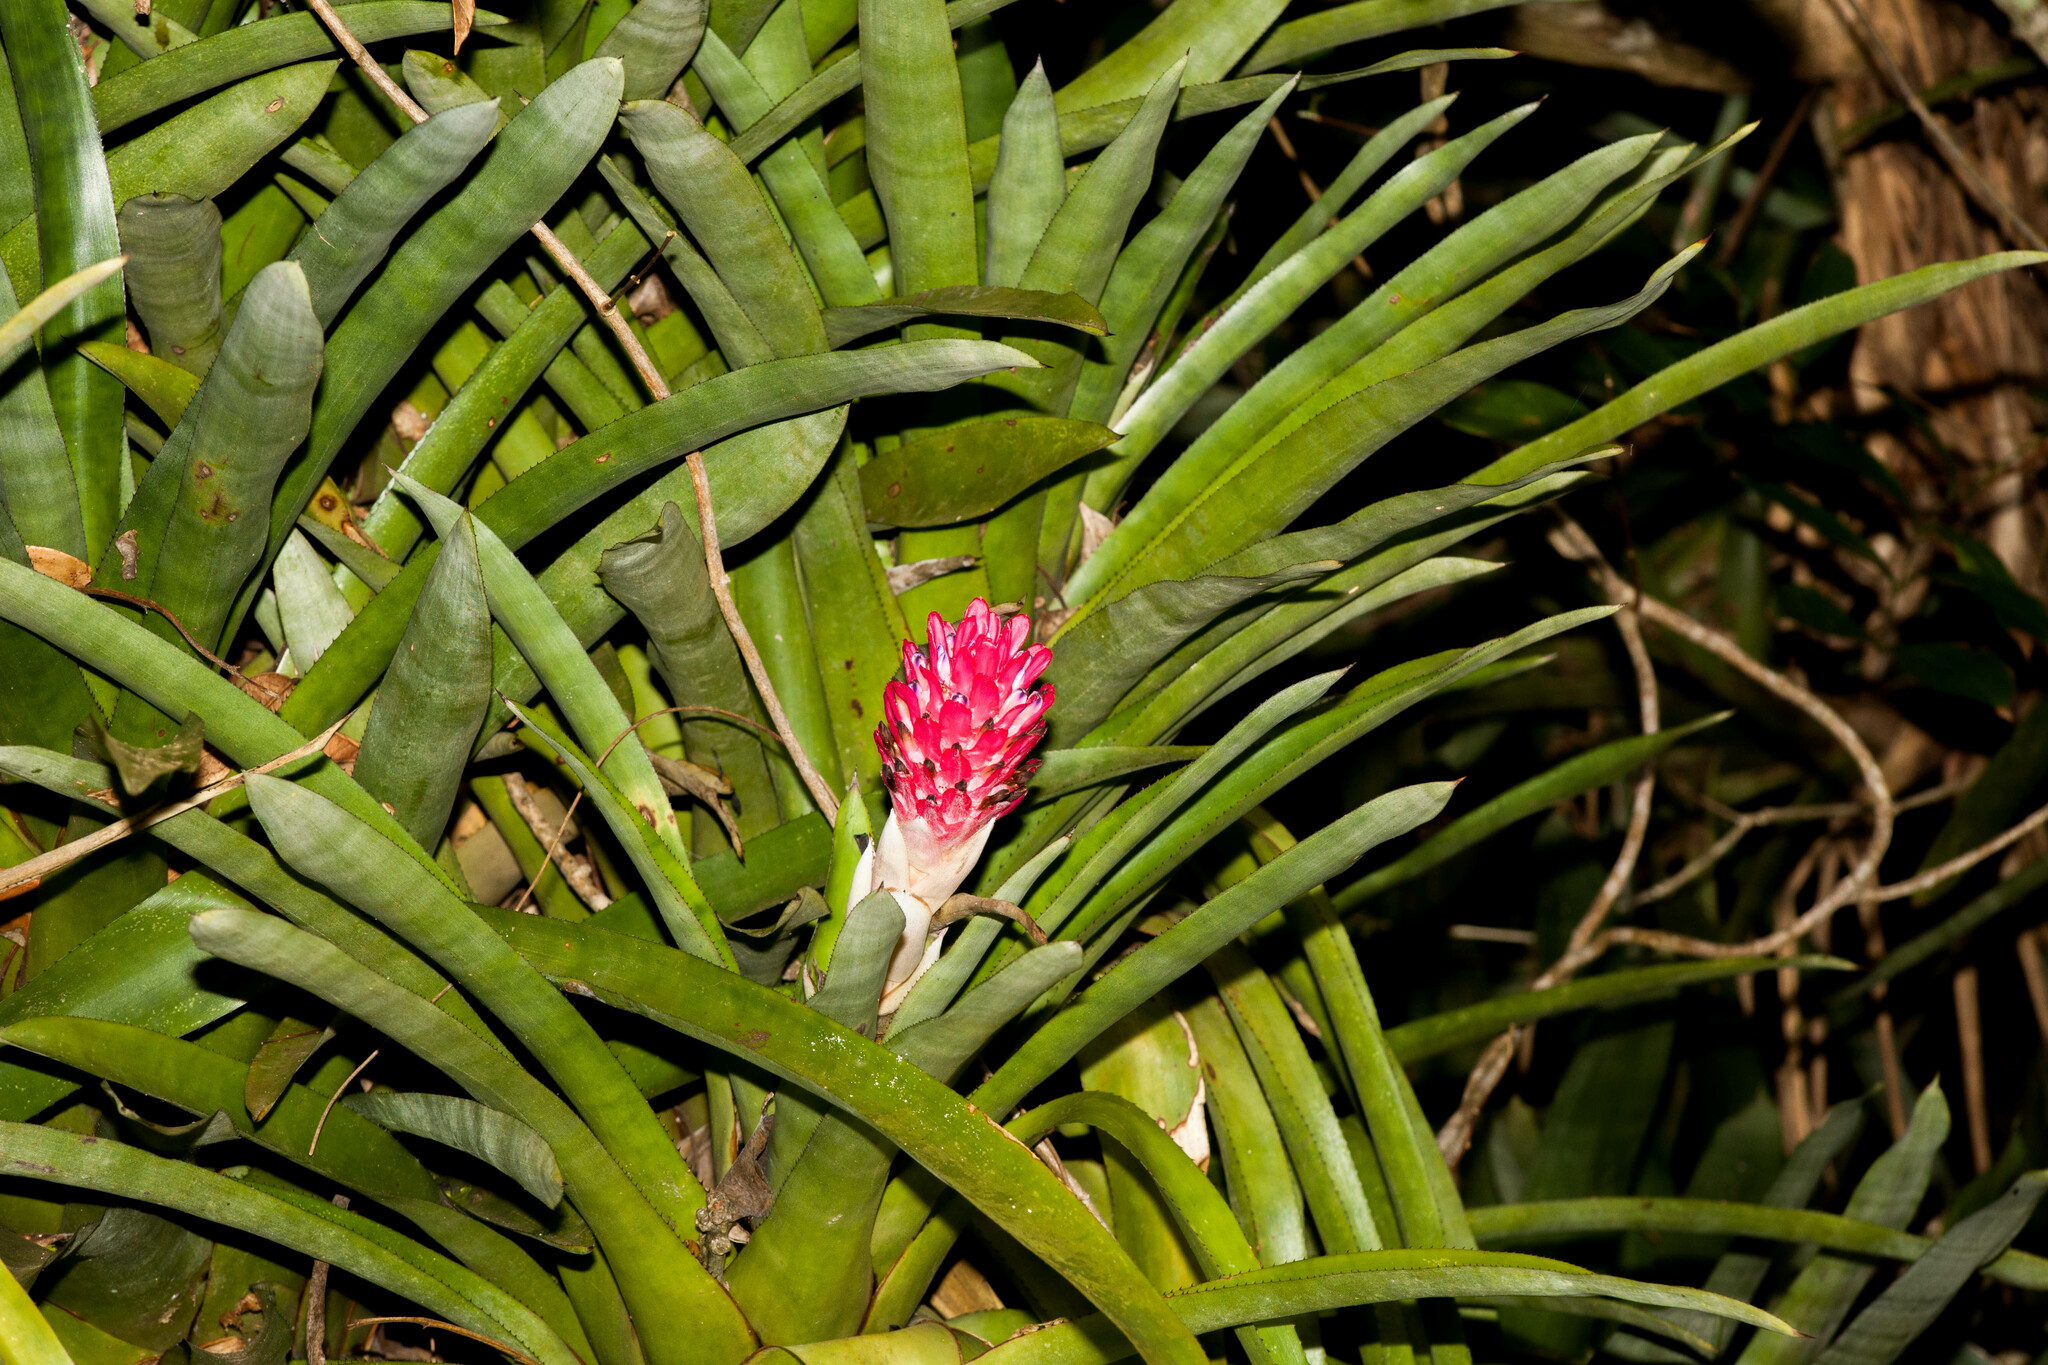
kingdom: Plantae
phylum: Tracheophyta
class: Liliopsida
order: Poales
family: Bromeliaceae
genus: Quesnelia
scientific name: Quesnelia arvensis
